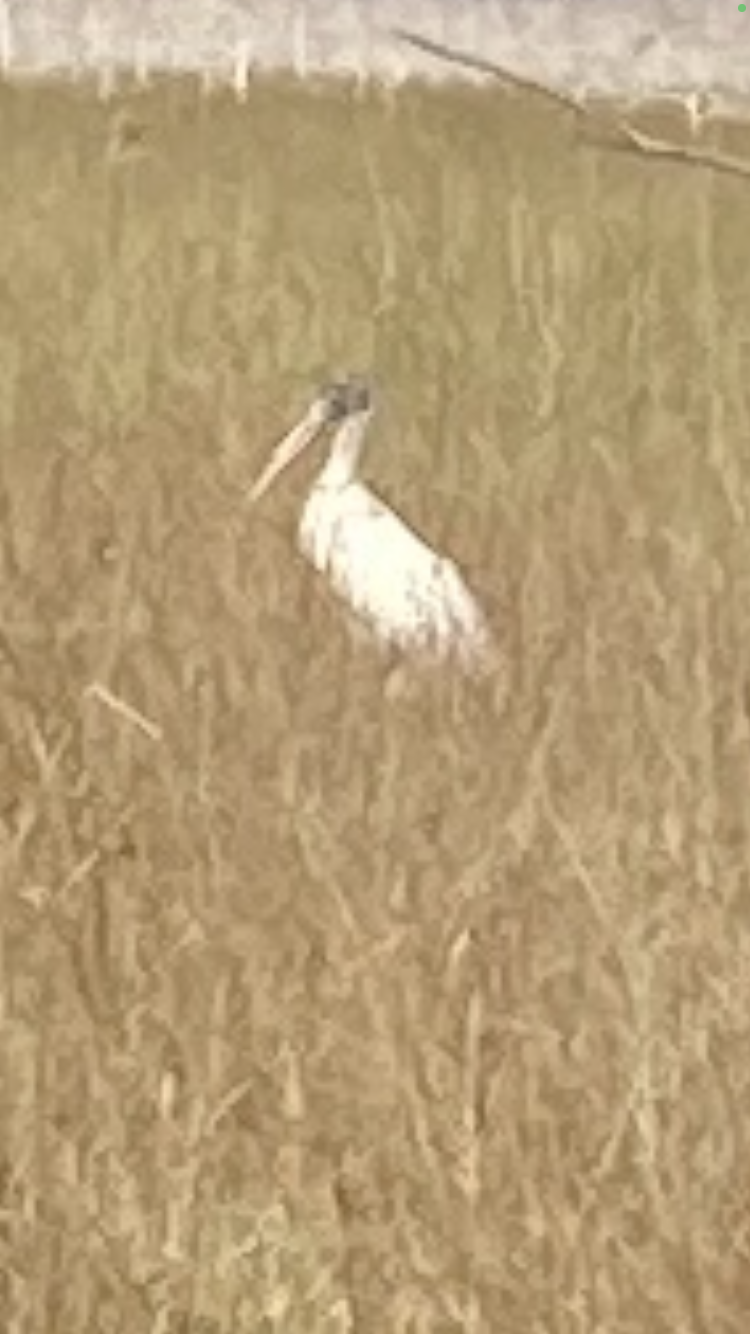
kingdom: Animalia
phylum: Chordata
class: Aves
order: Ciconiiformes
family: Ciconiidae
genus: Mycteria
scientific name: Mycteria americana
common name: Wood stork
